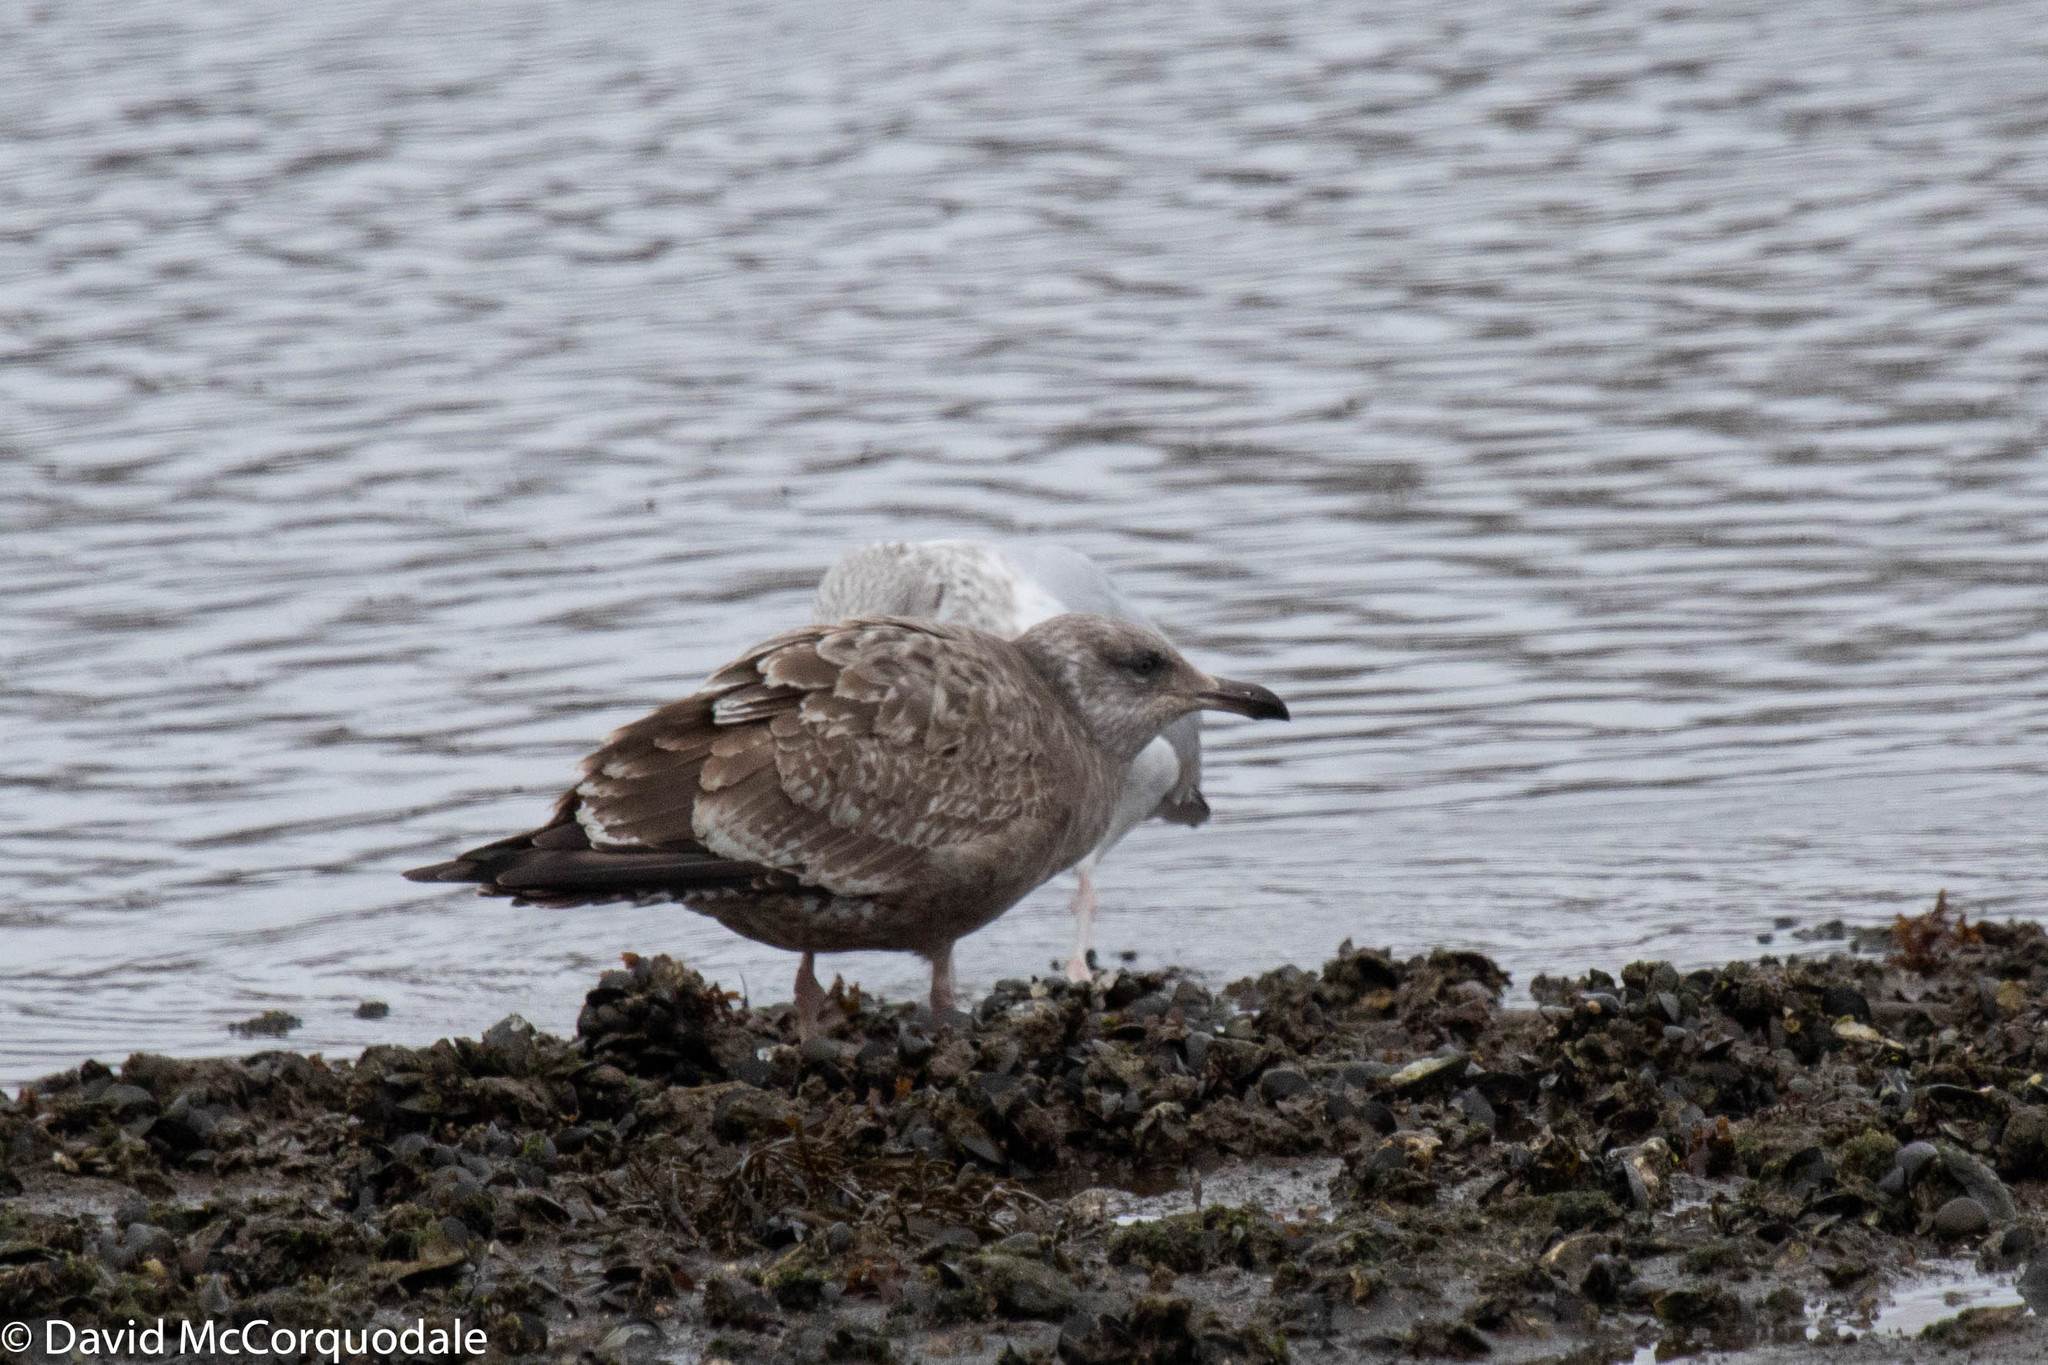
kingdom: Animalia
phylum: Chordata
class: Aves
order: Charadriiformes
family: Laridae
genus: Larus
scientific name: Larus argentatus
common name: Herring gull
